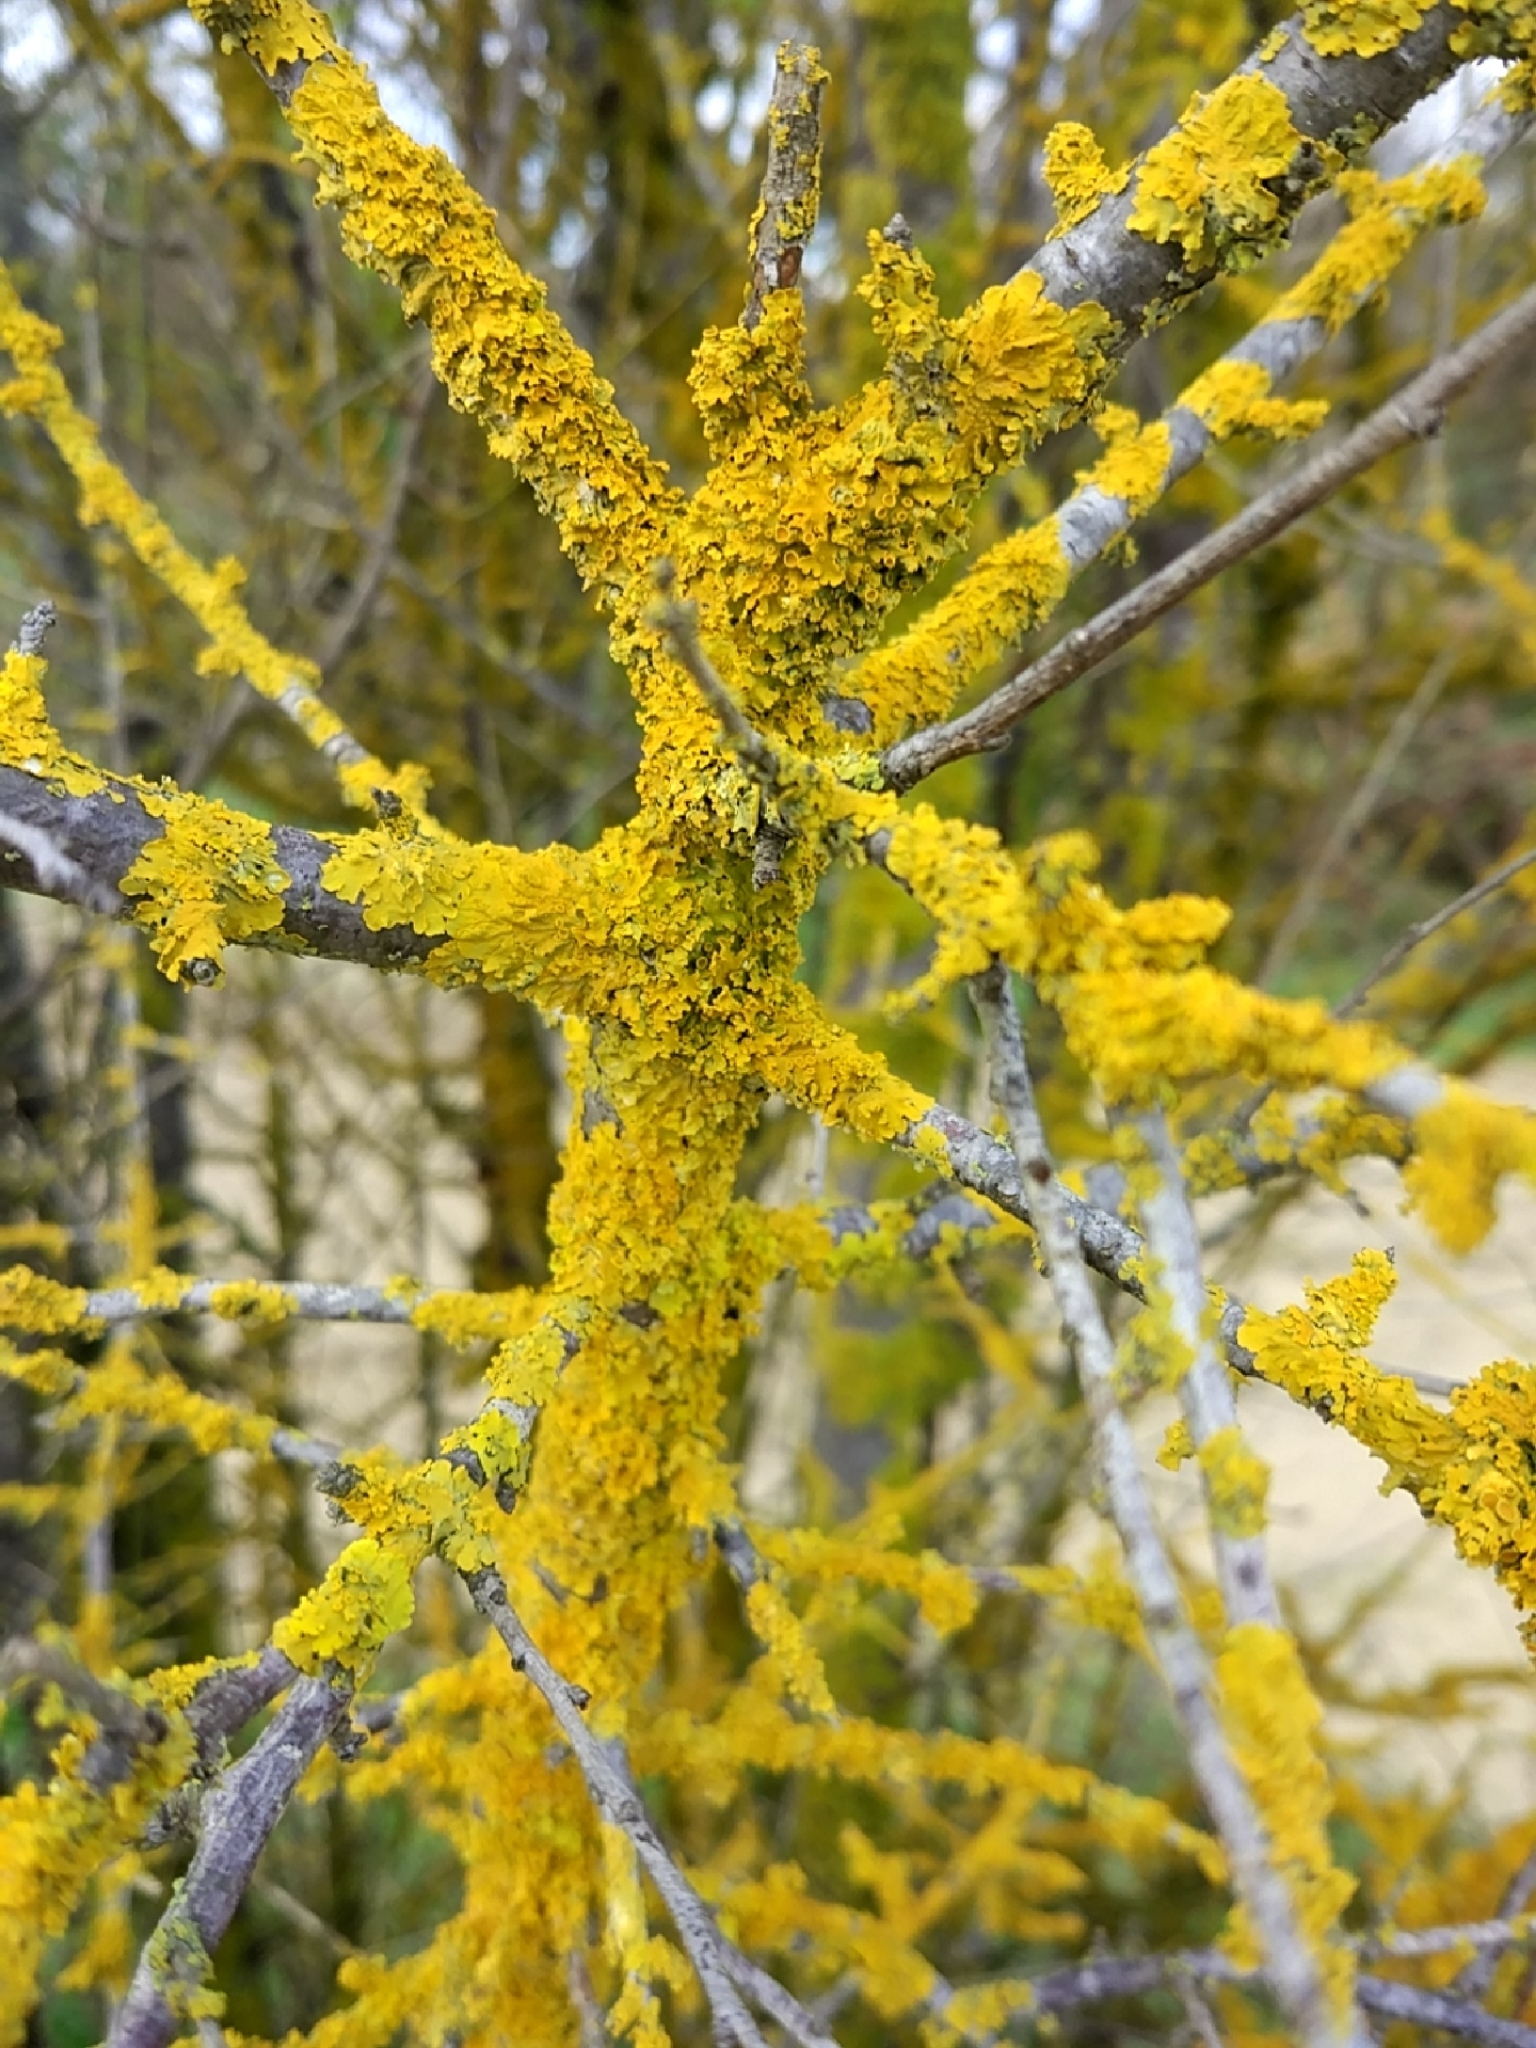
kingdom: Fungi
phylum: Ascomycota
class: Lecanoromycetes
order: Teloschistales
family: Teloschistaceae
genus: Xanthoria
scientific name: Xanthoria parietina
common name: Common orange lichen
